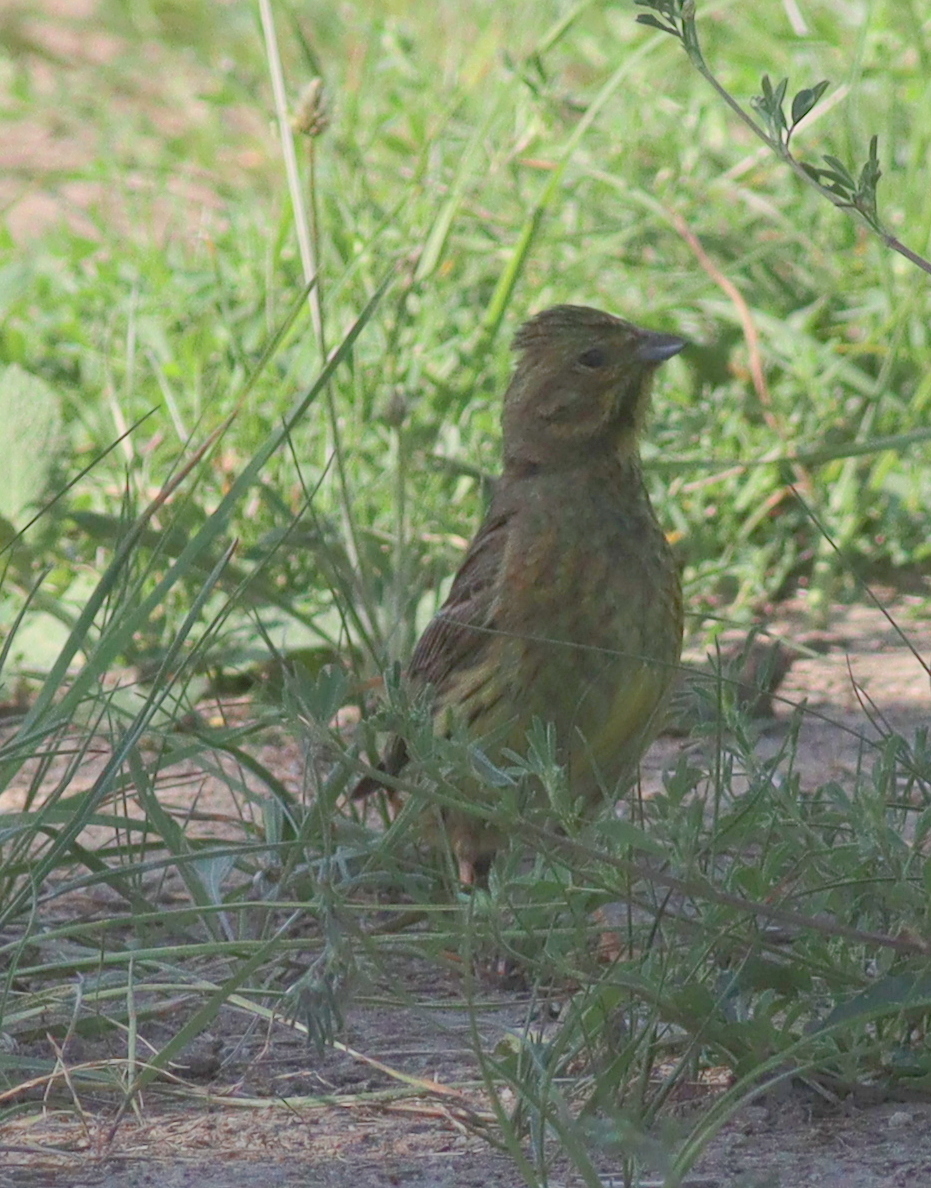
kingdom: Animalia
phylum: Chordata
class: Aves
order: Passeriformes
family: Emberizidae
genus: Emberiza
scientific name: Emberiza citrinella
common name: Yellowhammer
